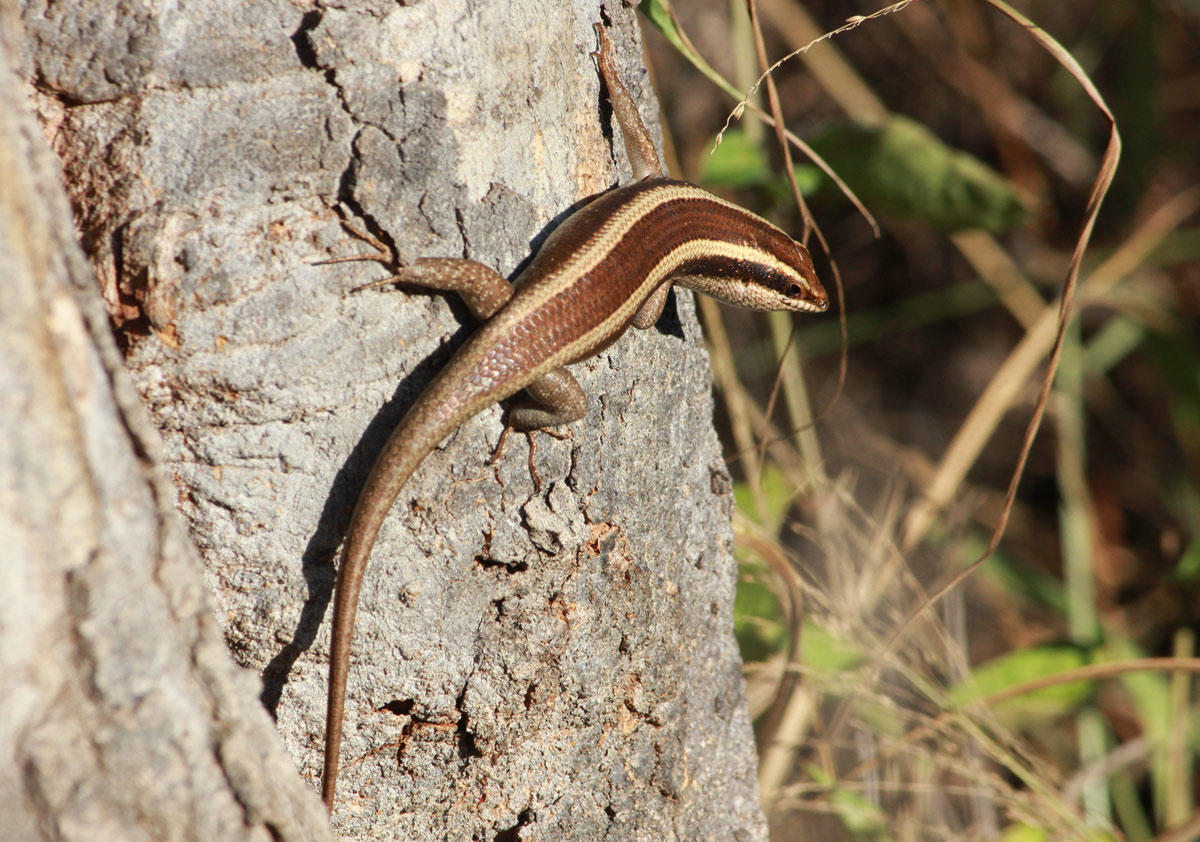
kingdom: Animalia
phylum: Chordata
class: Squamata
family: Scincidae
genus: Trachylepis
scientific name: Trachylepis striata
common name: African striped mabuya
